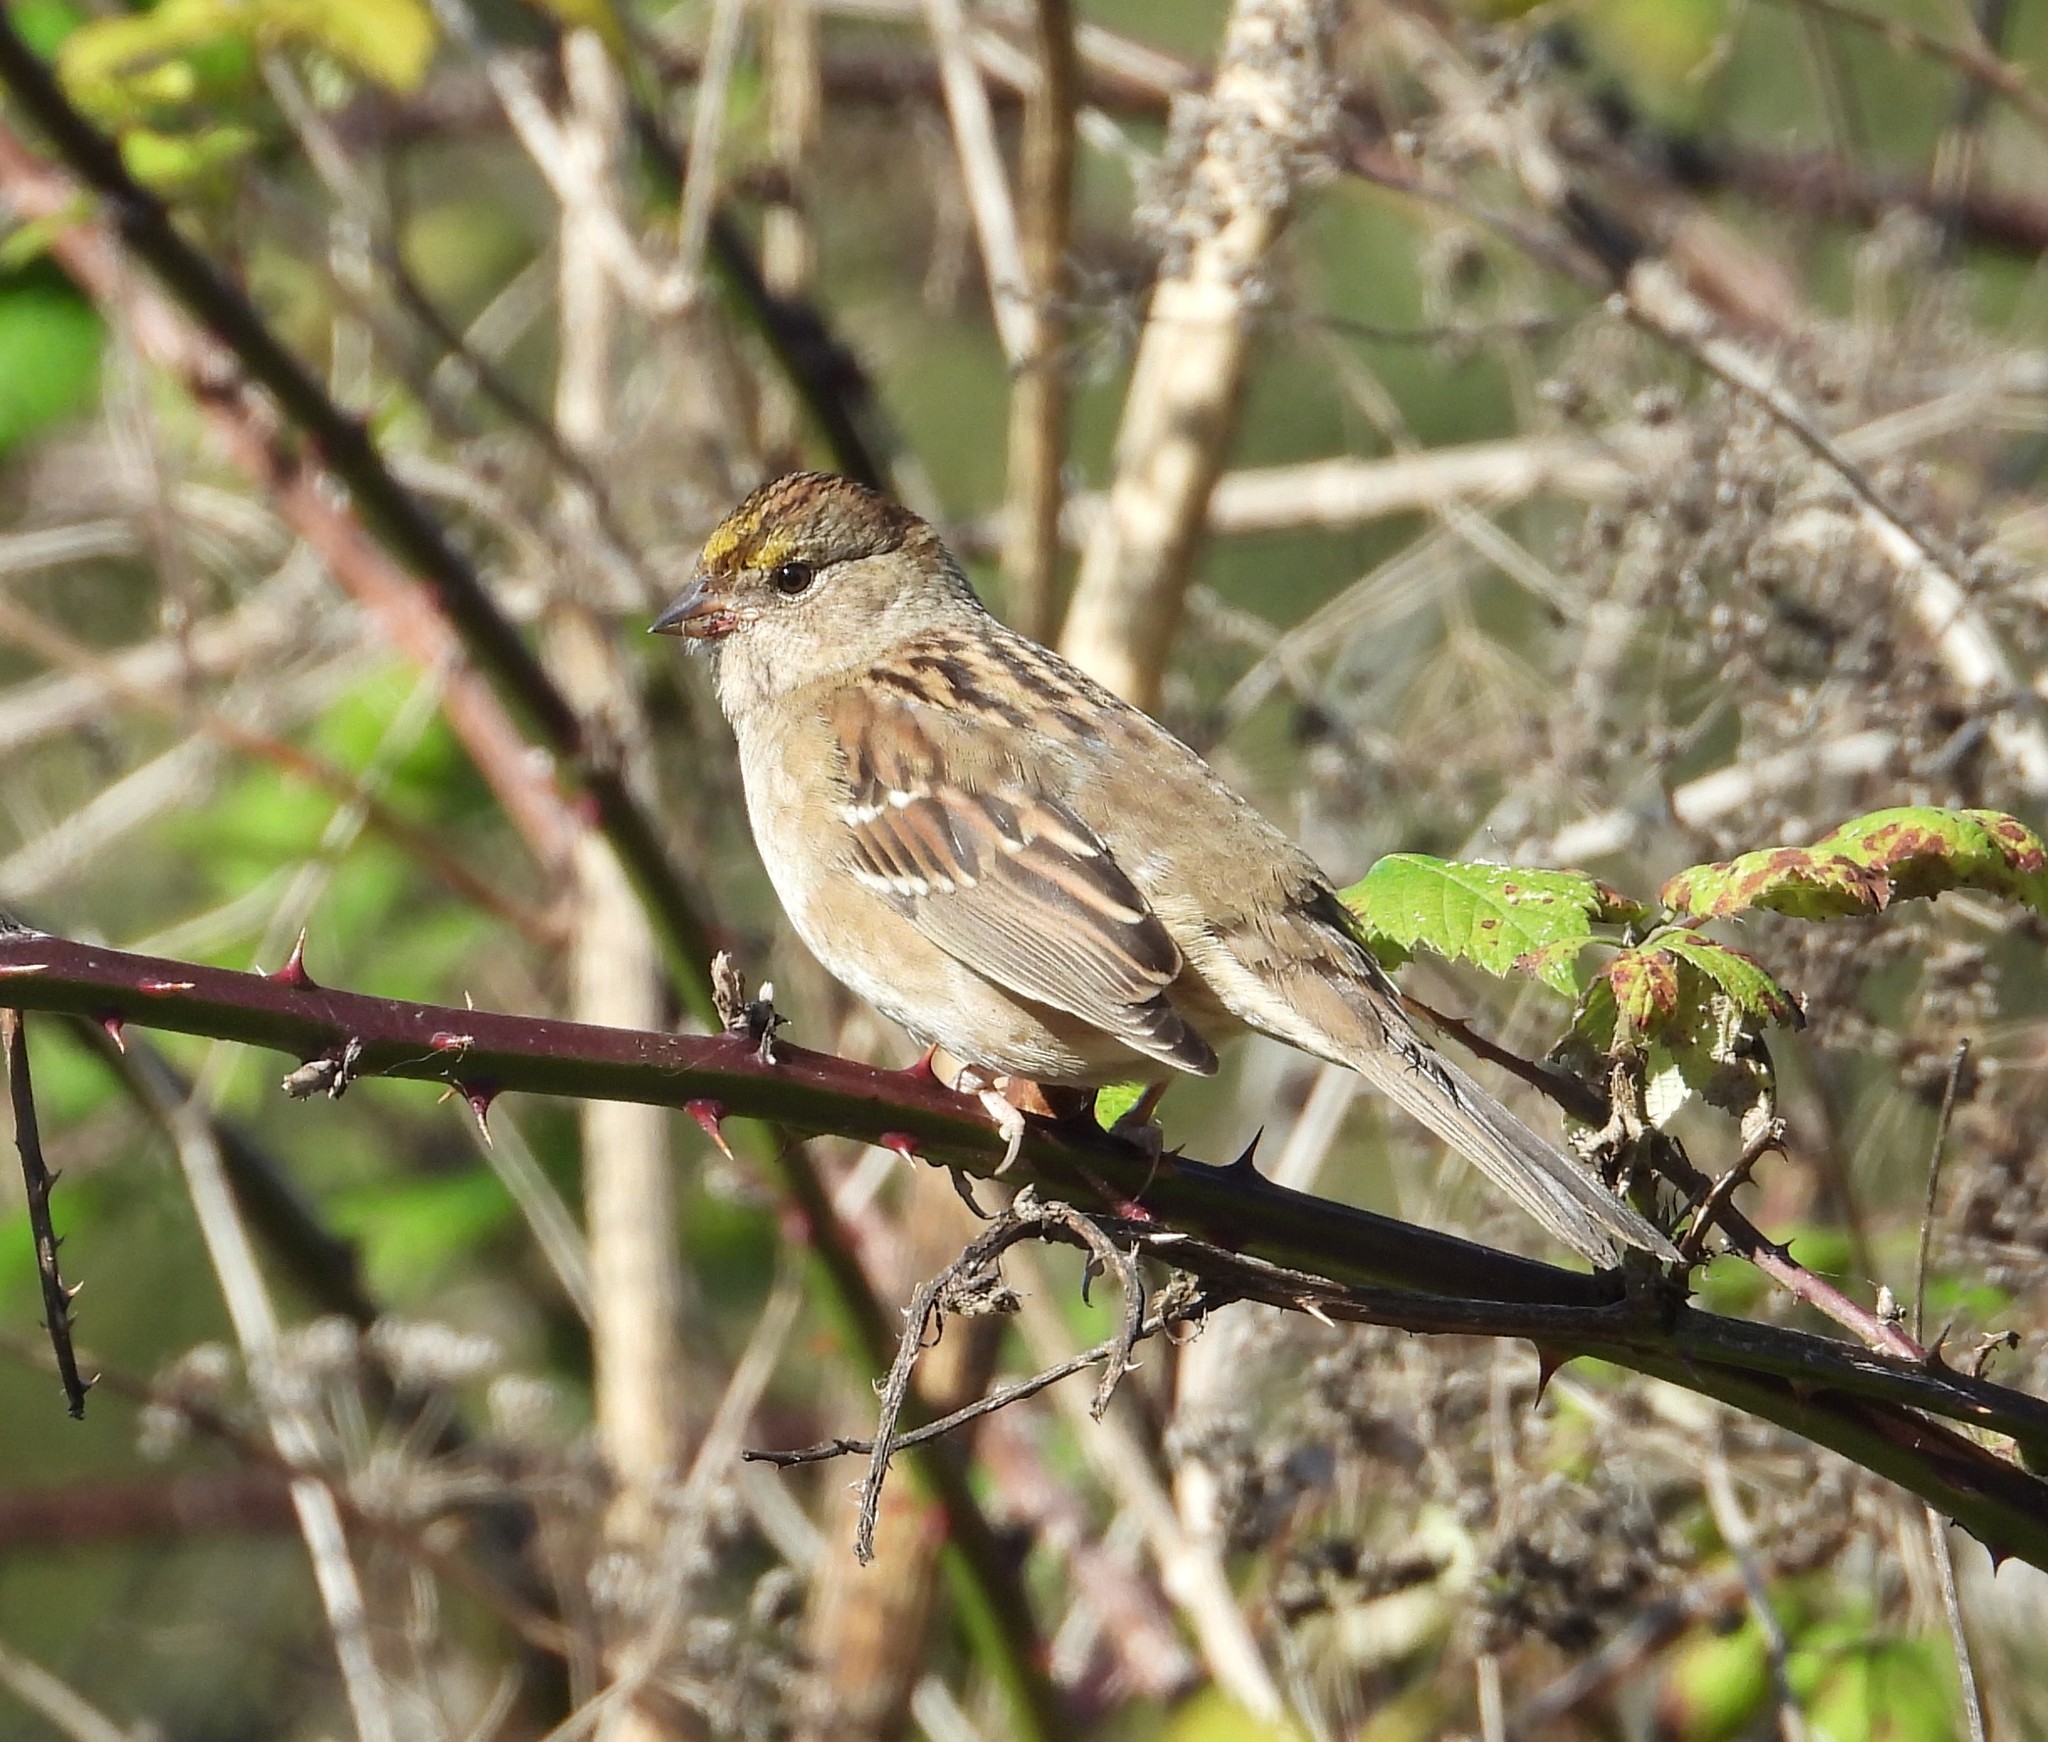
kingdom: Animalia
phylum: Chordata
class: Aves
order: Passeriformes
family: Passerellidae
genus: Zonotrichia
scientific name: Zonotrichia atricapilla
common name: Golden-crowned sparrow
